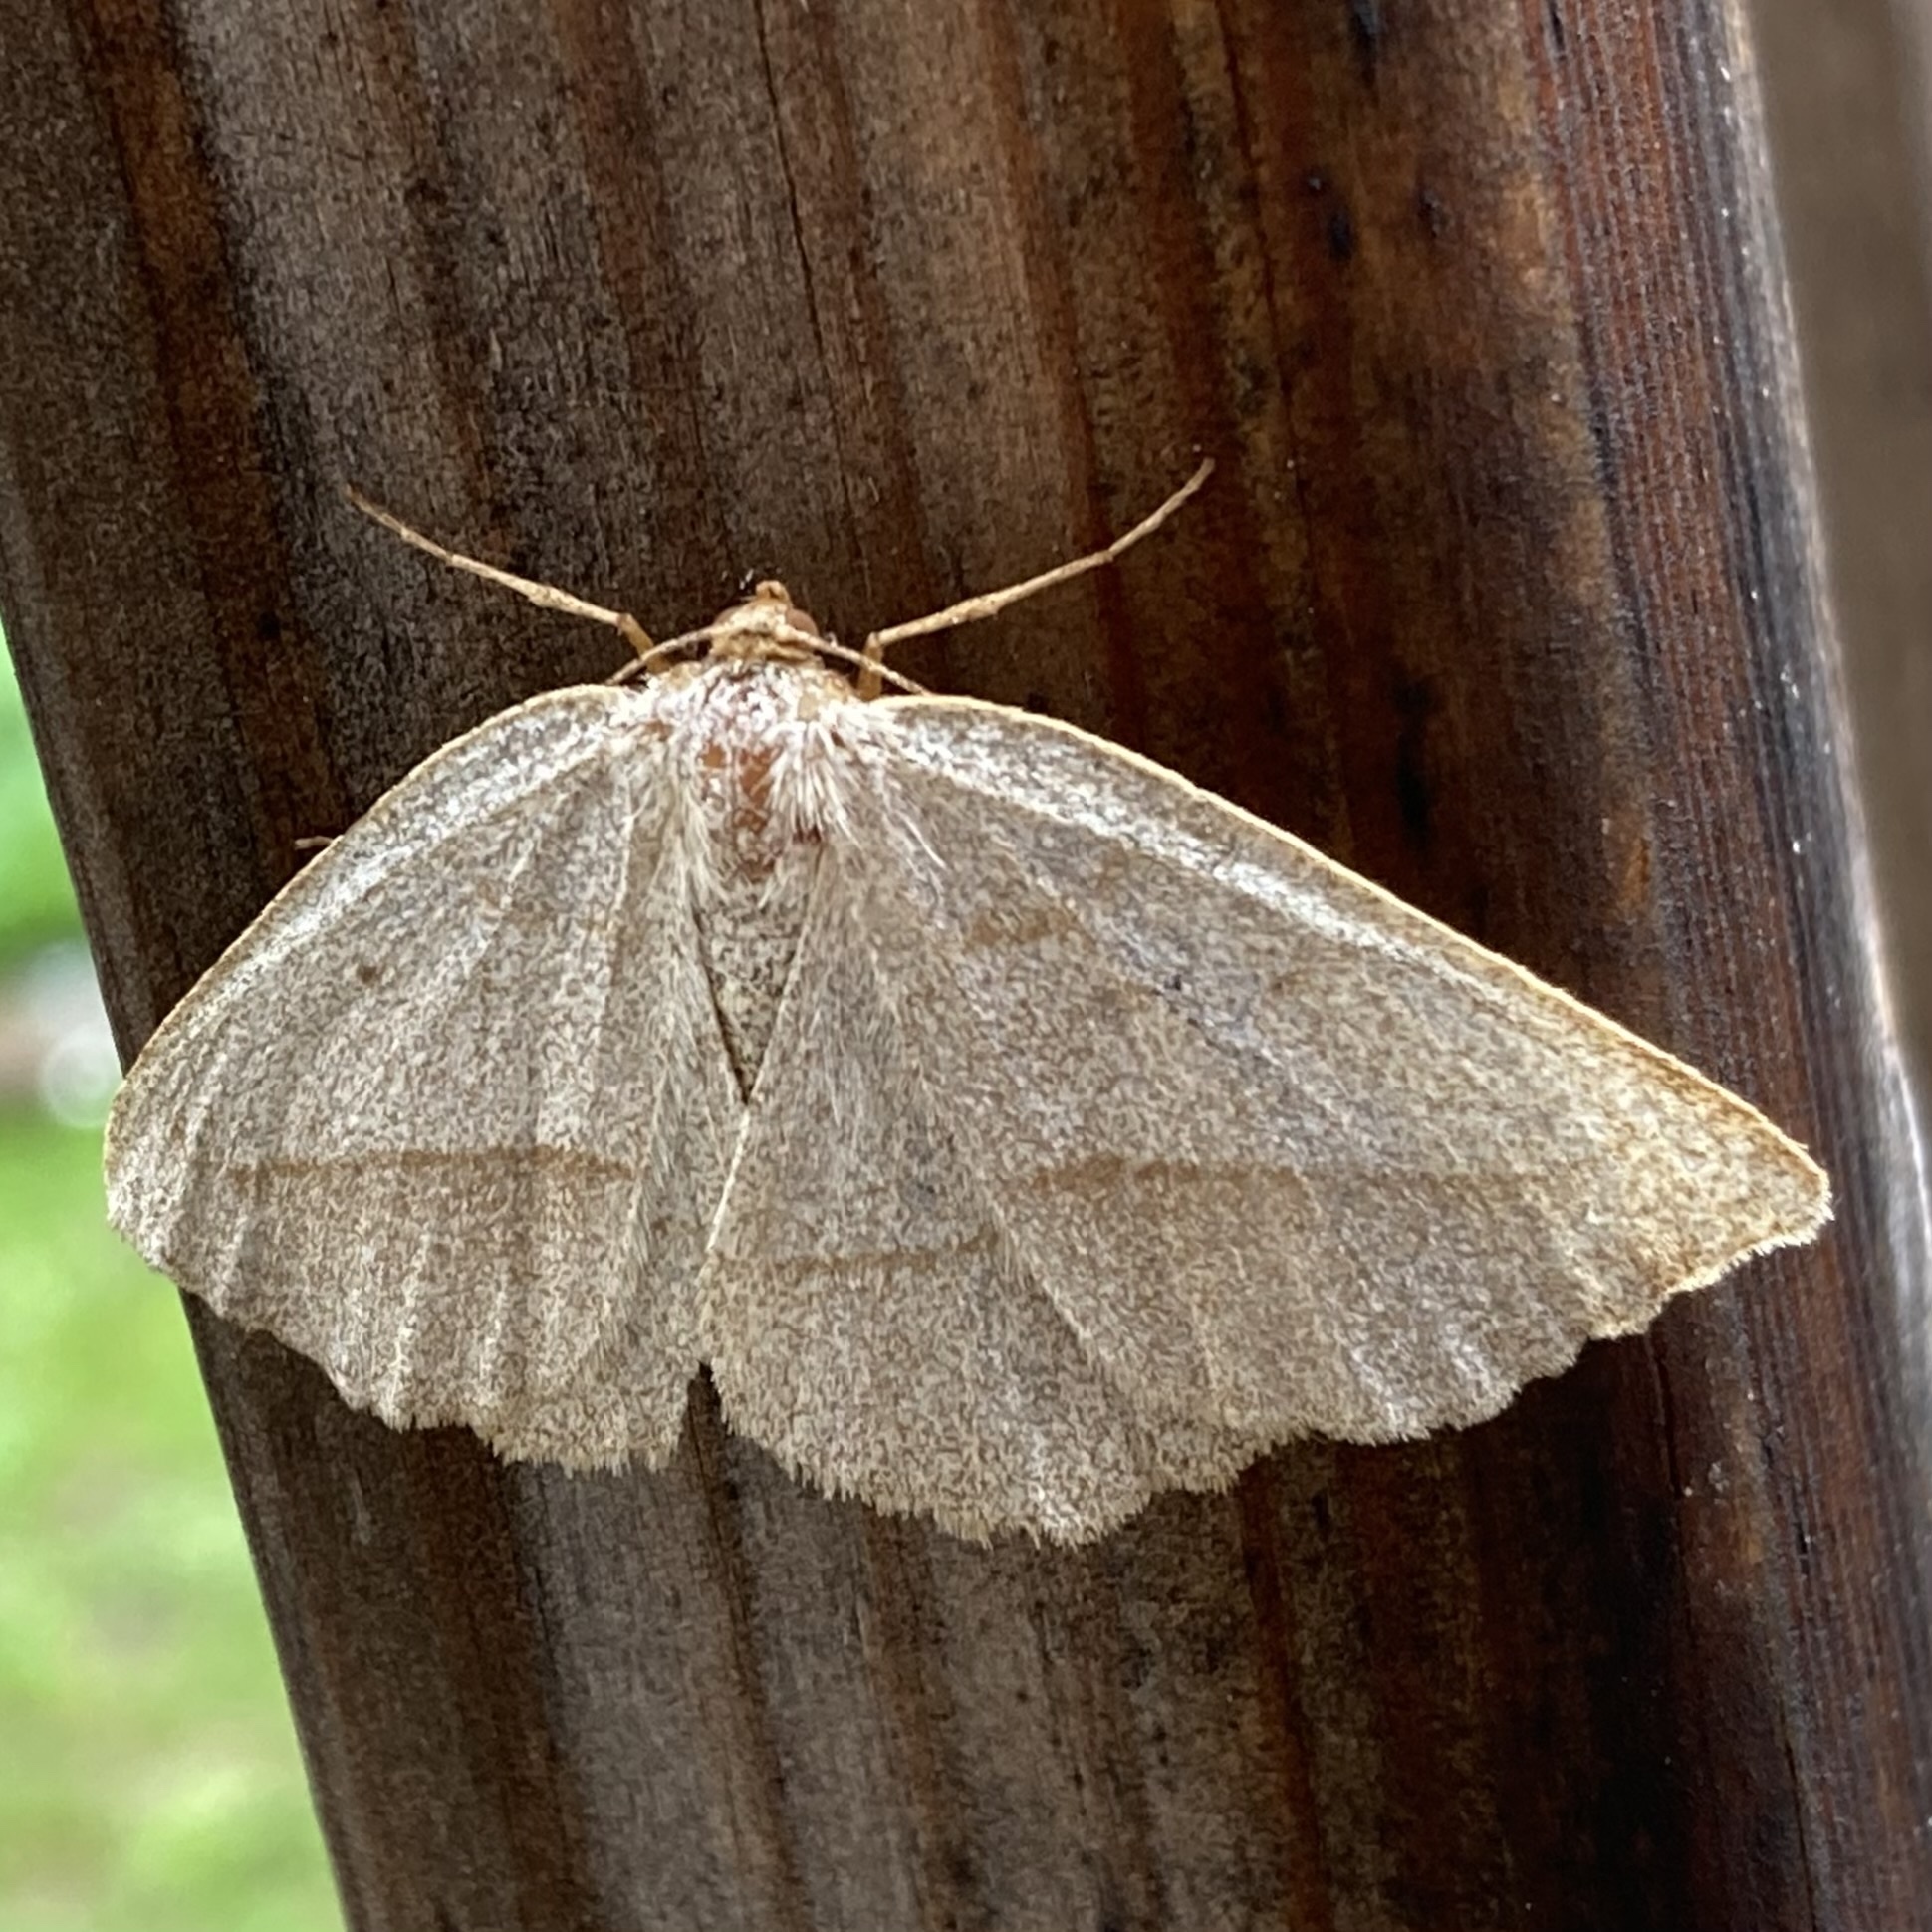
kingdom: Animalia
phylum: Arthropoda
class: Insecta
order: Lepidoptera
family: Geometridae
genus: Euchlaena
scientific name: Euchlaena irraria
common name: Least-marked euchlaena
